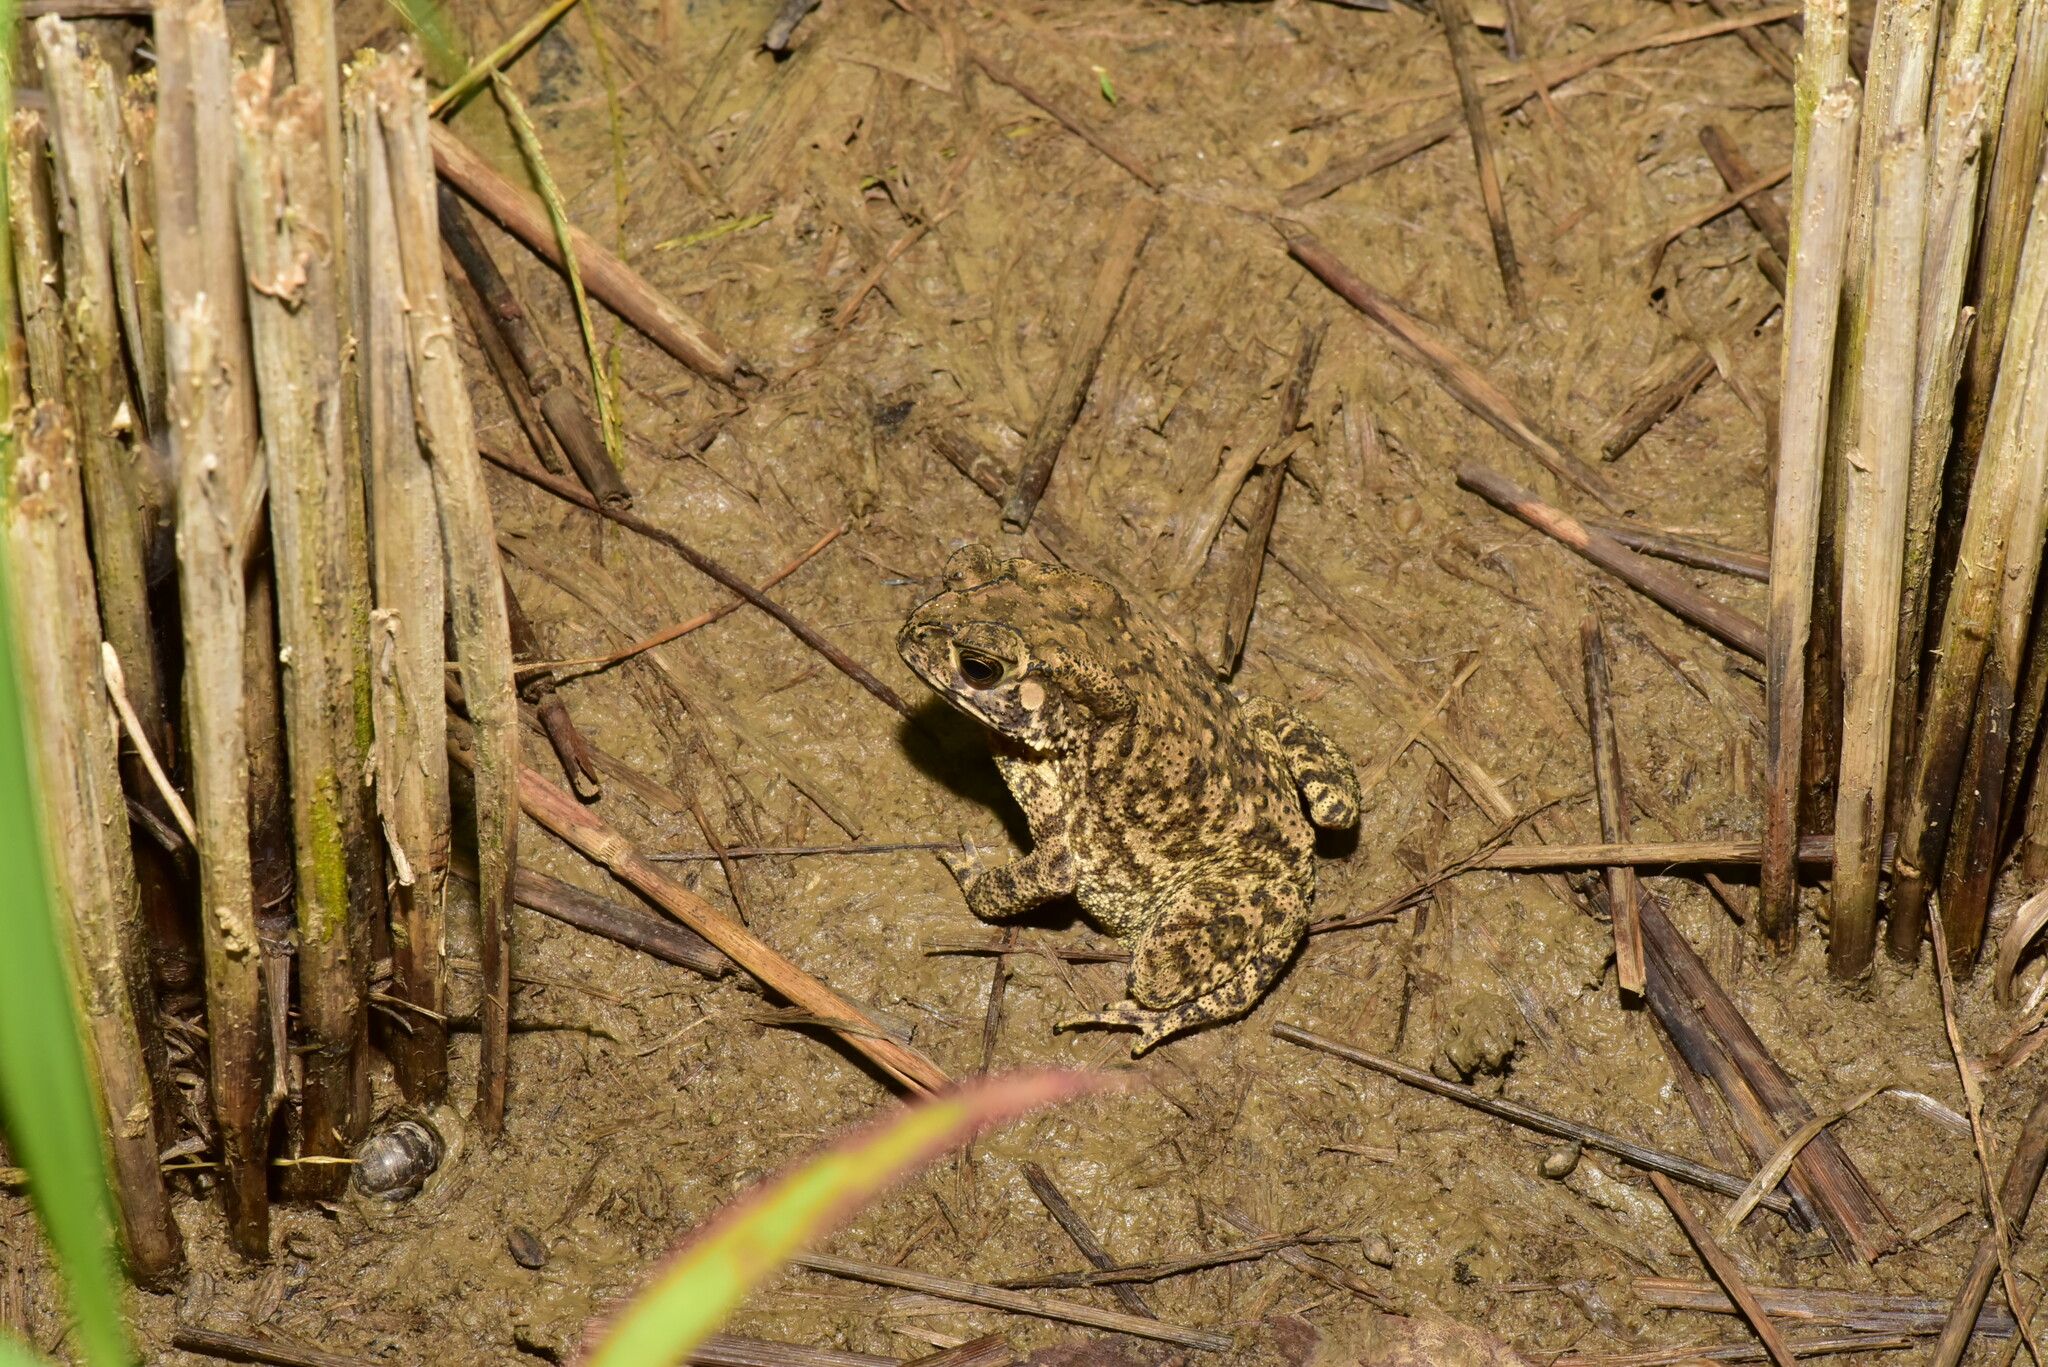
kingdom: Animalia
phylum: Chordata
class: Amphibia
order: Anura
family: Bufonidae
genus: Duttaphrynus
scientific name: Duttaphrynus melanostictus
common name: Common sunda toad
